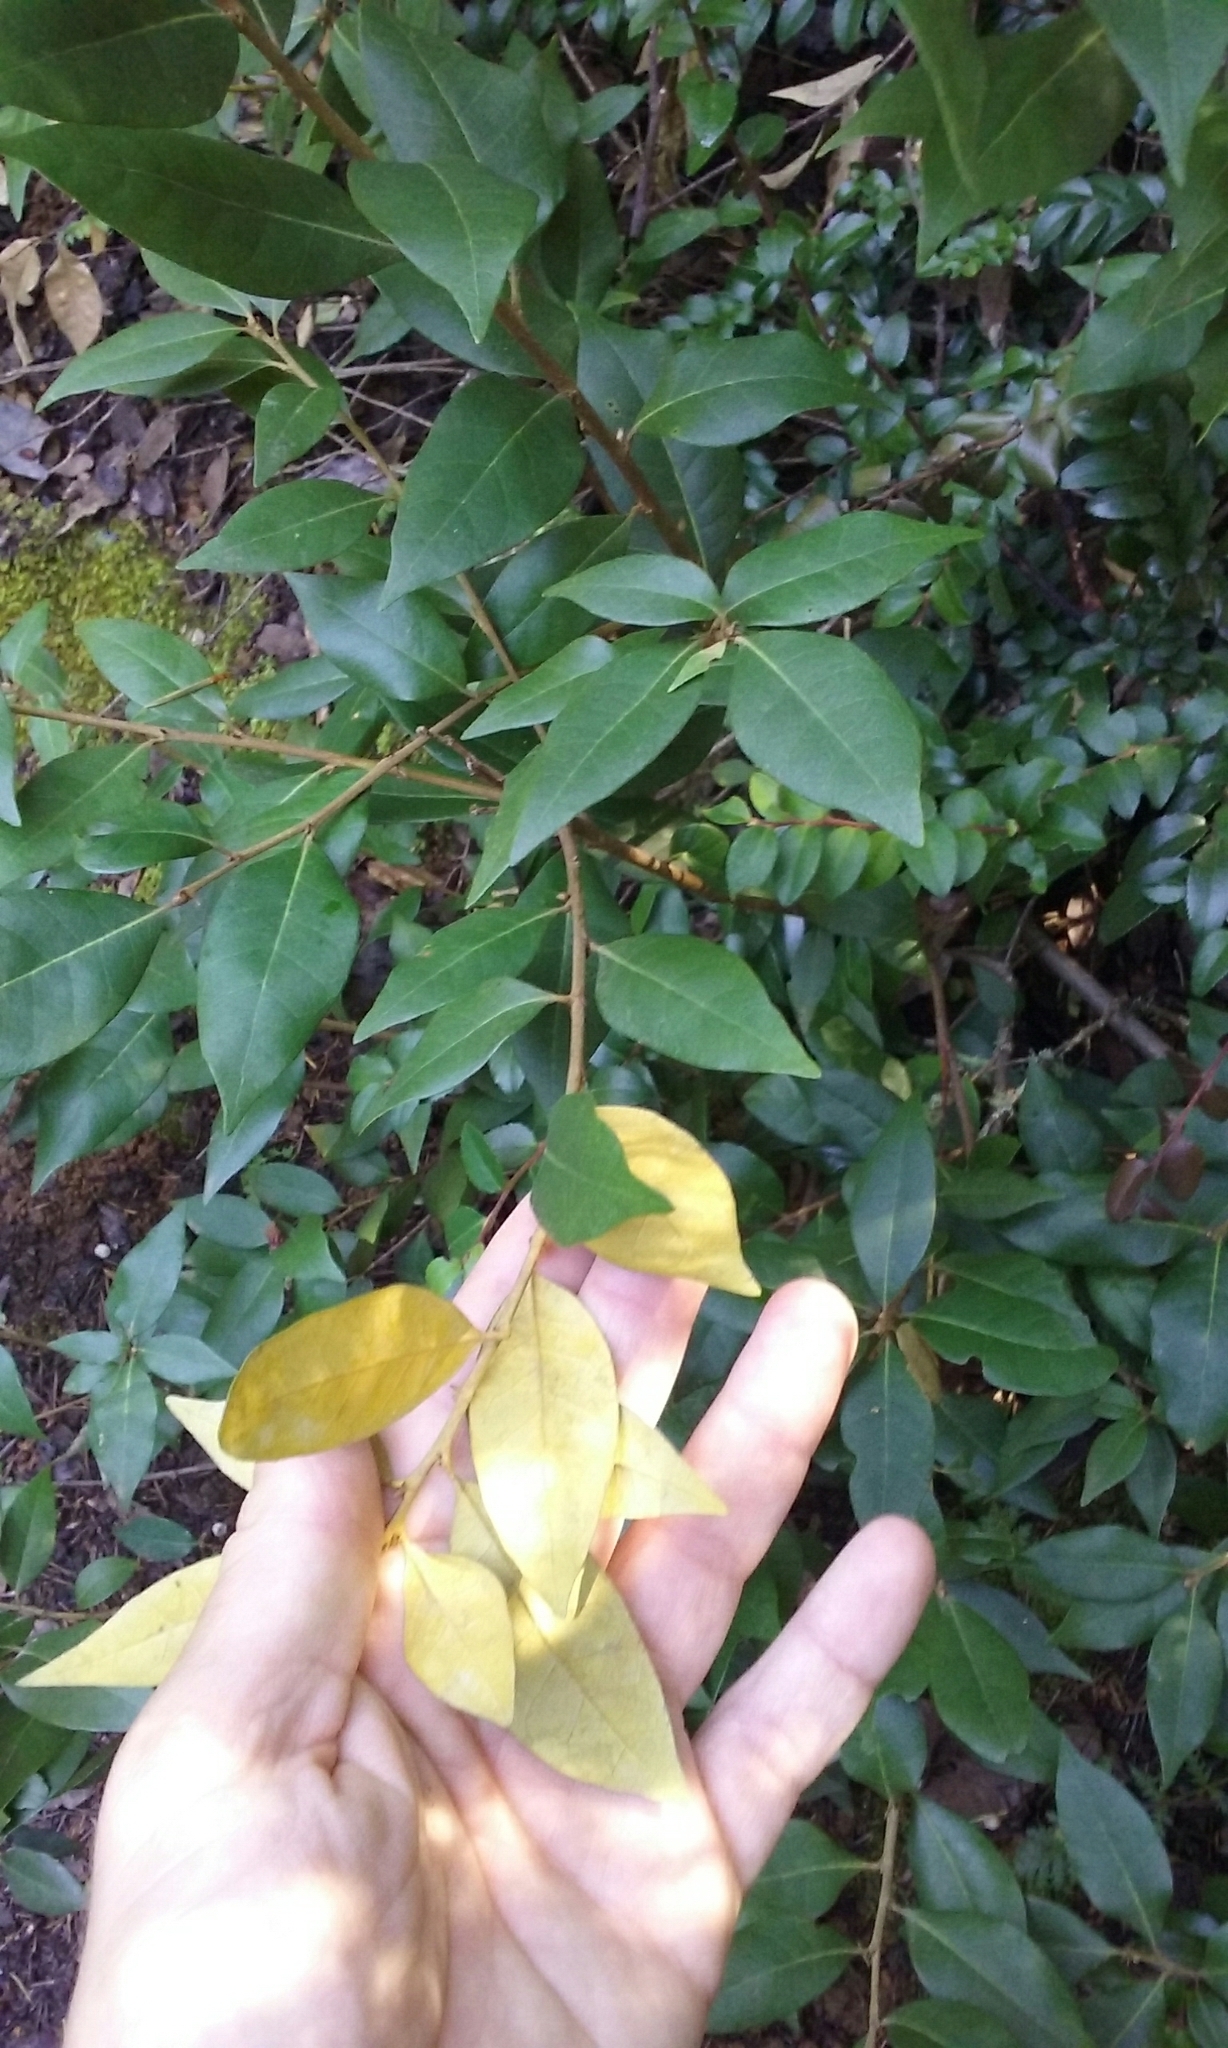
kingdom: Plantae
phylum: Tracheophyta
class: Magnoliopsida
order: Fagales
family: Fagaceae
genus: Chrysolepis
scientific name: Chrysolepis chrysophylla
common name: Giant chinquapin
